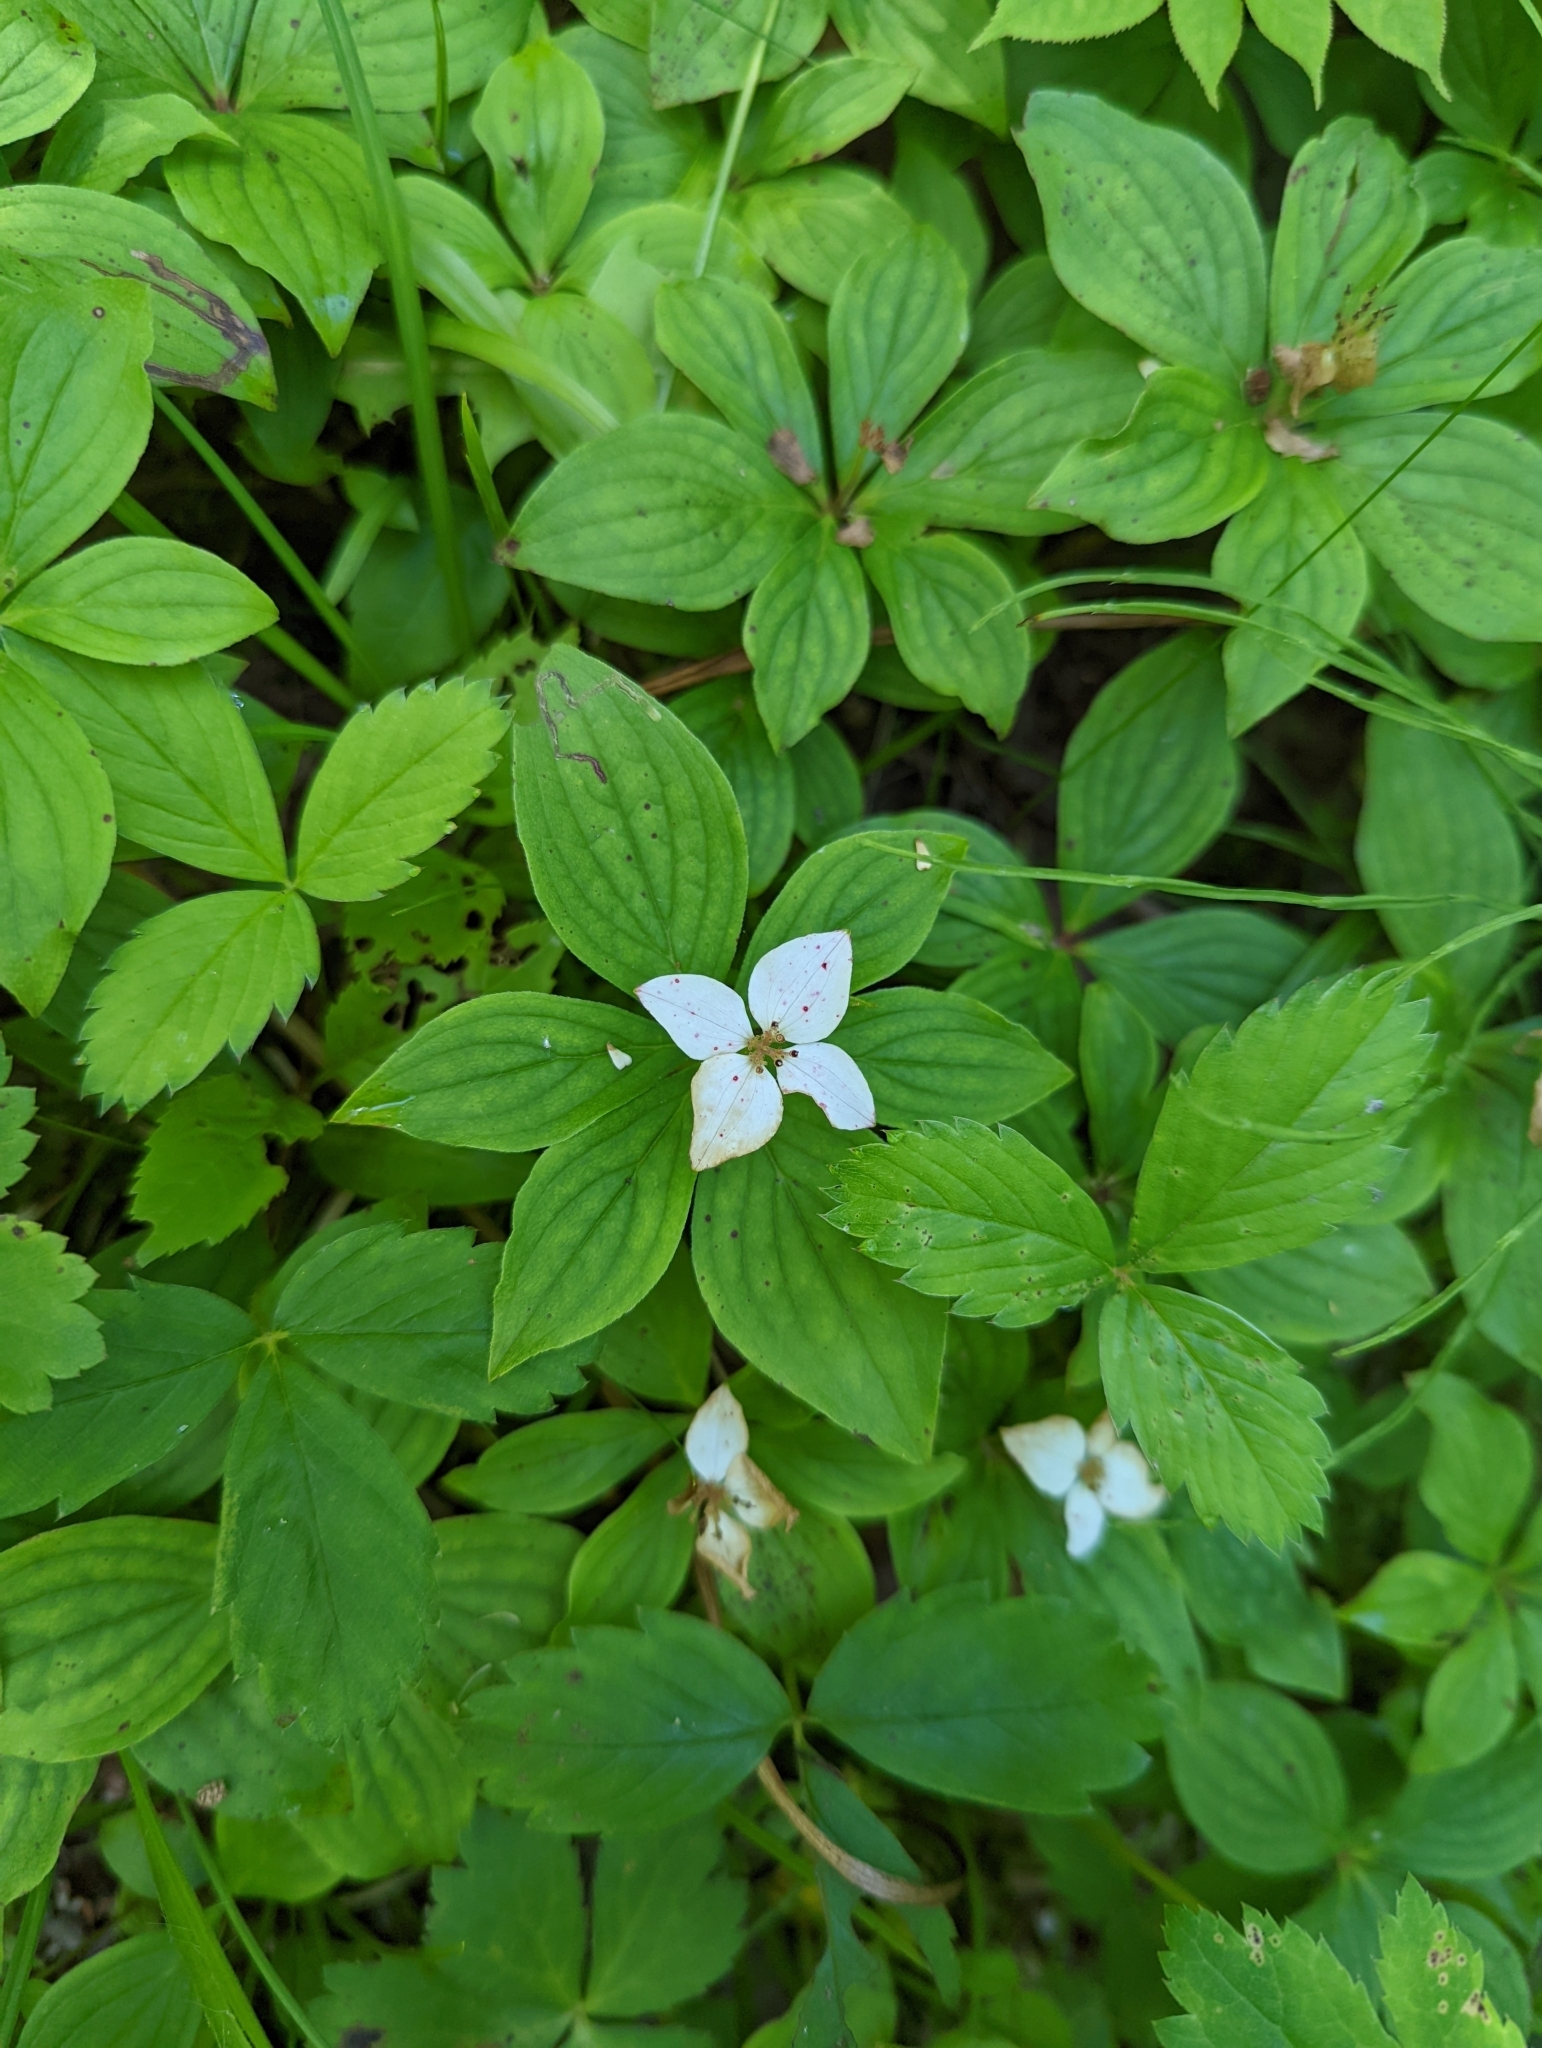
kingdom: Plantae
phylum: Tracheophyta
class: Magnoliopsida
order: Cornales
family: Cornaceae
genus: Cornus
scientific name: Cornus canadensis
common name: Creeping dogwood
